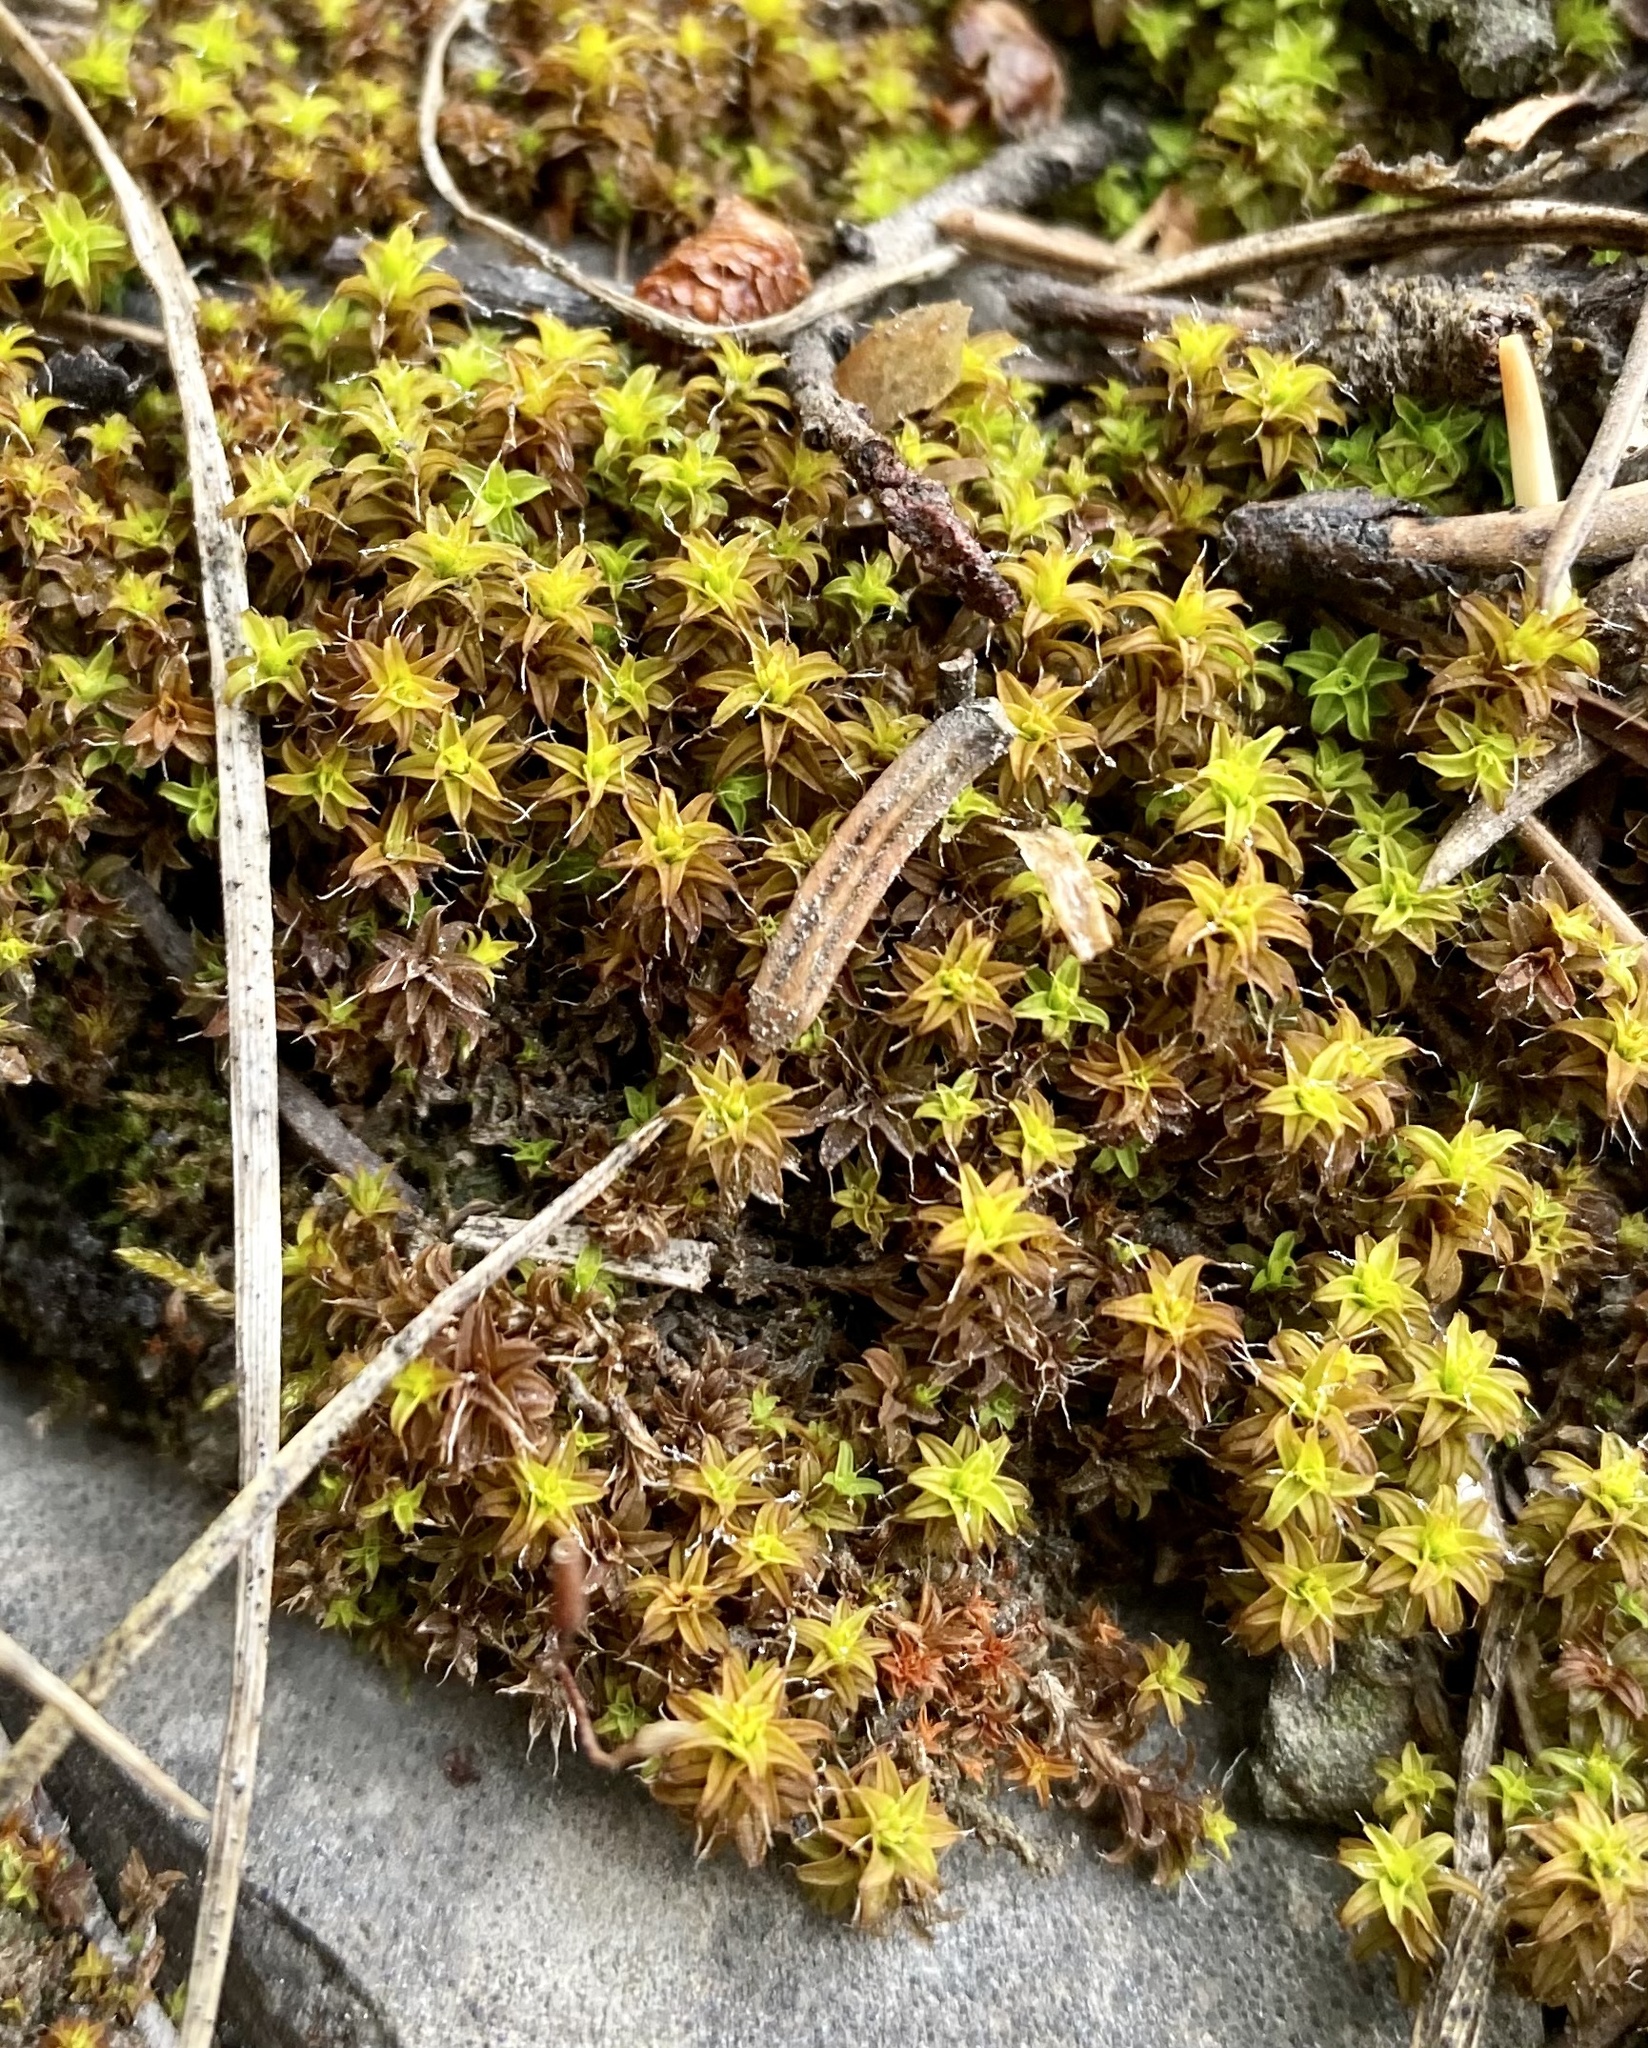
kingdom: Plantae
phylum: Bryophyta
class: Bryopsida
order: Pottiales
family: Pottiaceae
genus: Syntrichia
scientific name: Syntrichia ruralis
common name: Sidewalk screw moss
